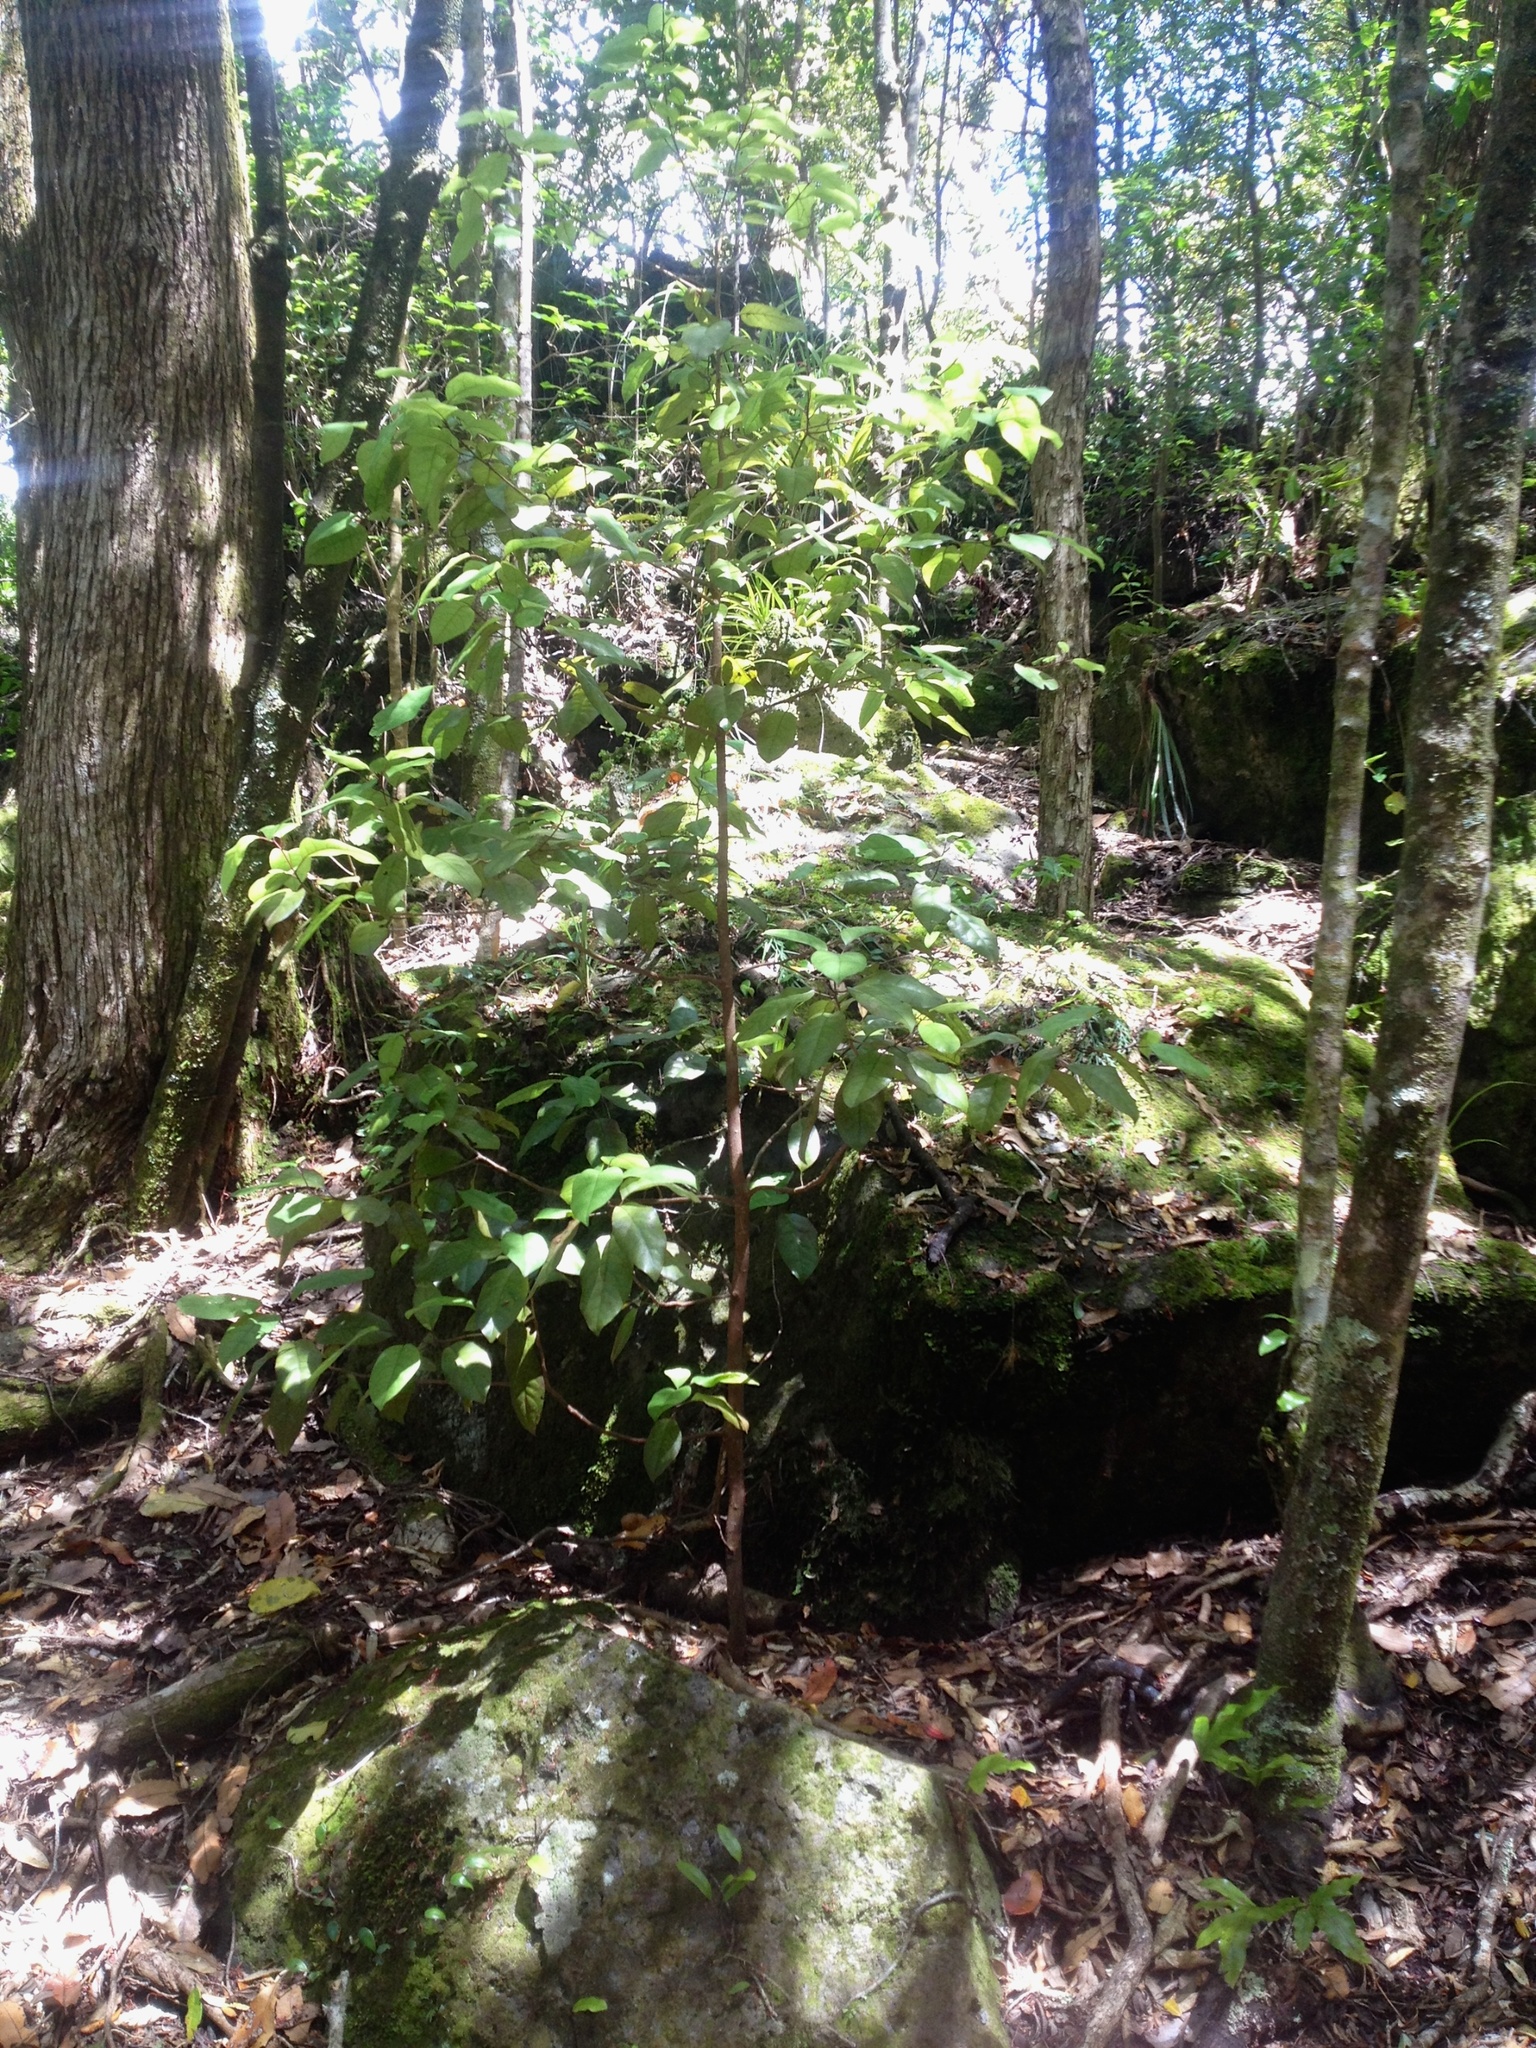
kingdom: Plantae
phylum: Tracheophyta
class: Magnoliopsida
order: Laurales
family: Lauraceae
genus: Litsea
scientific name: Litsea calicaris
